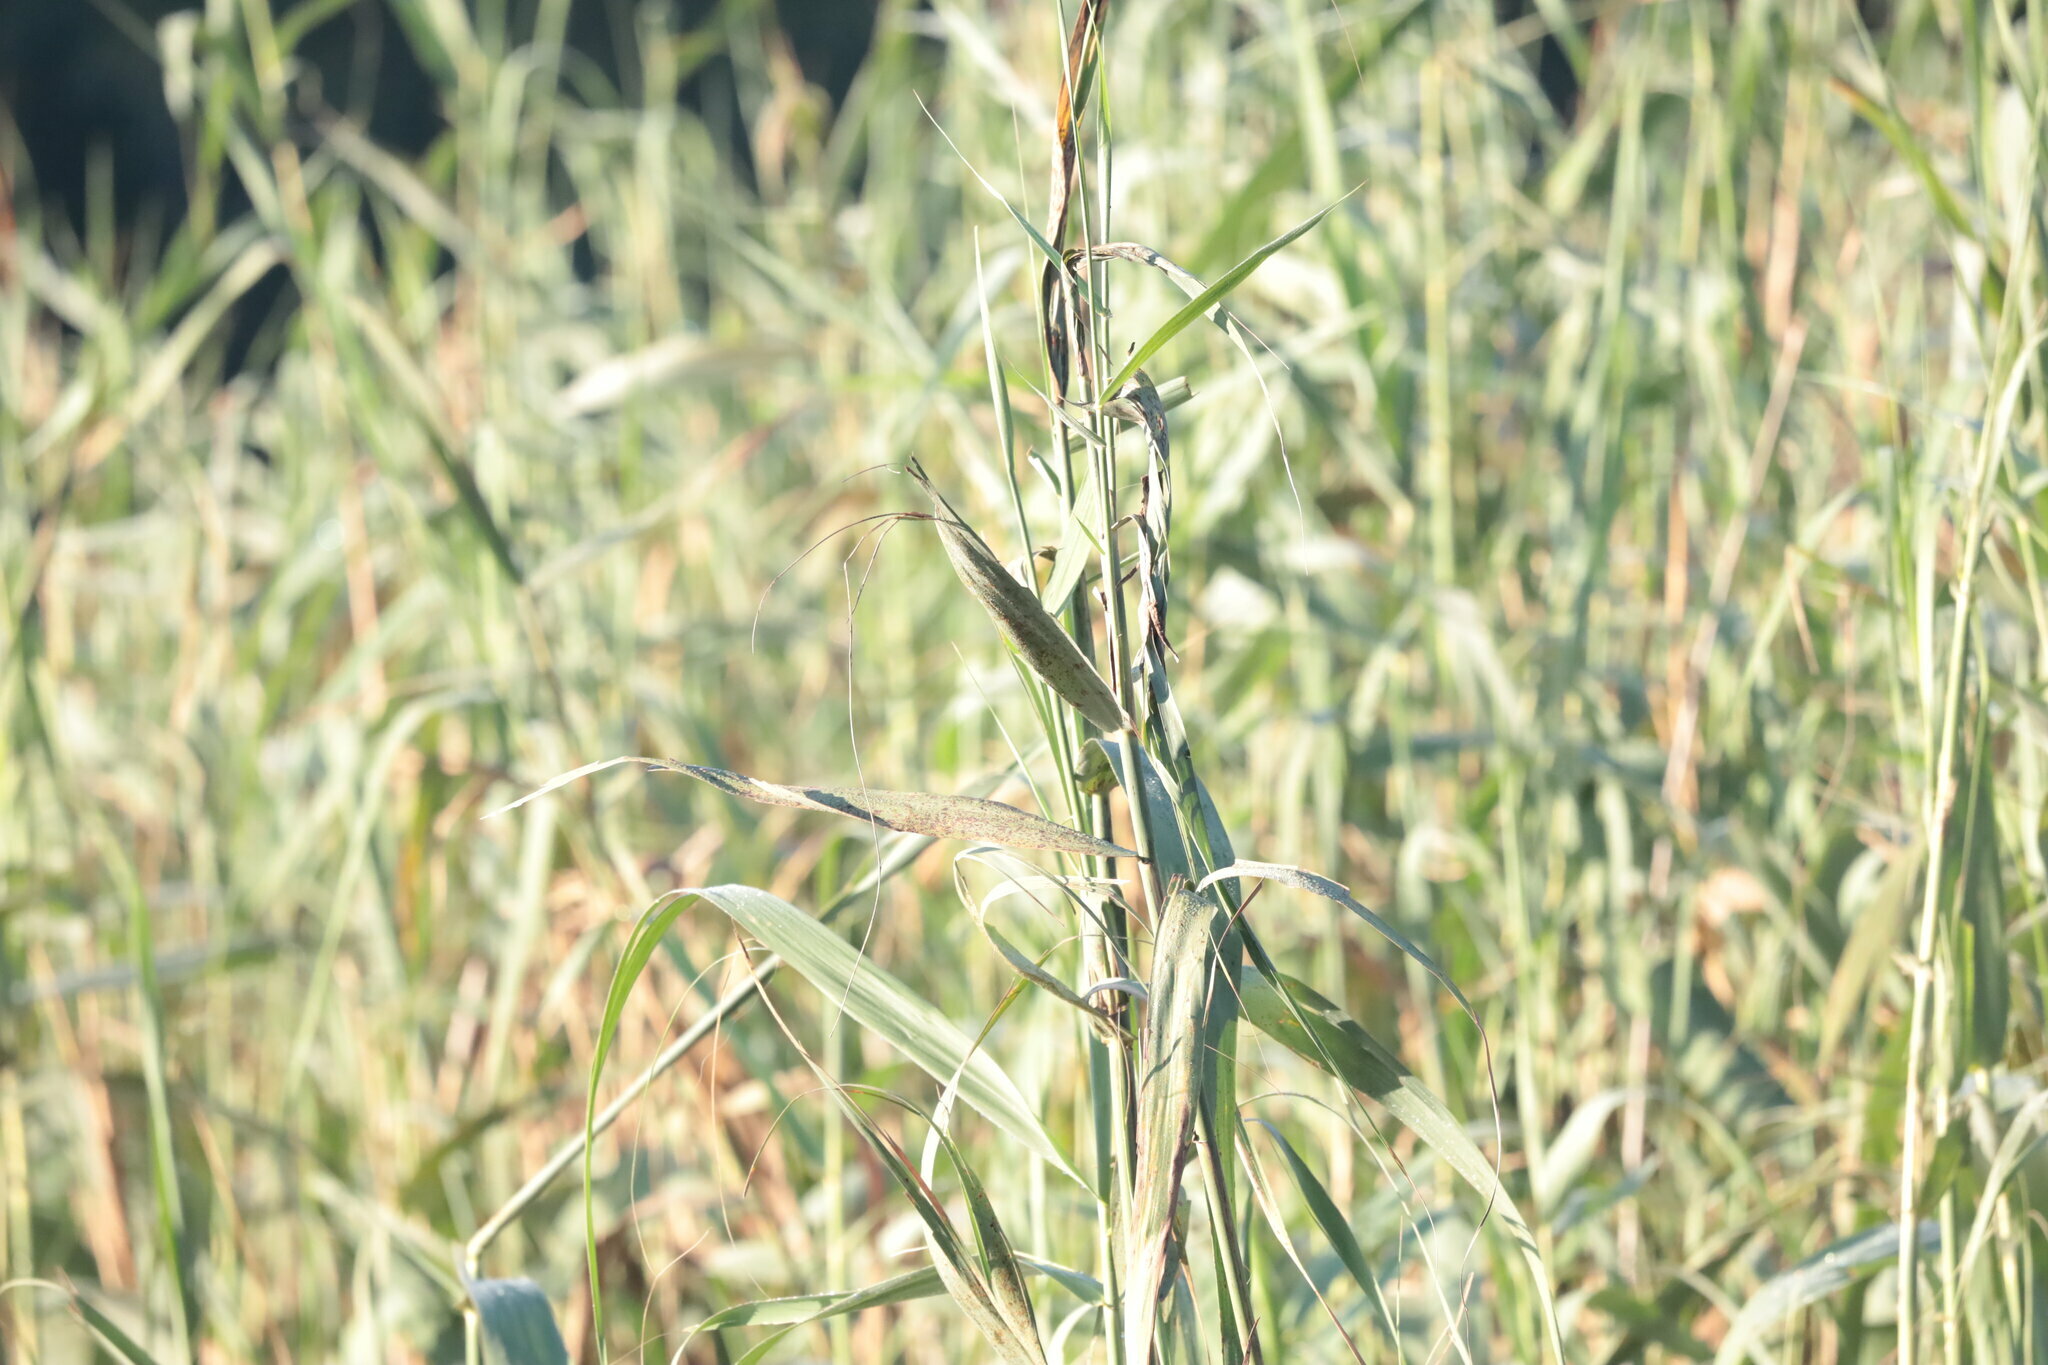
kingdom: Plantae
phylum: Tracheophyta
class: Liliopsida
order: Poales
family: Typhaceae
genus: Typha
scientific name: Typha capensis
